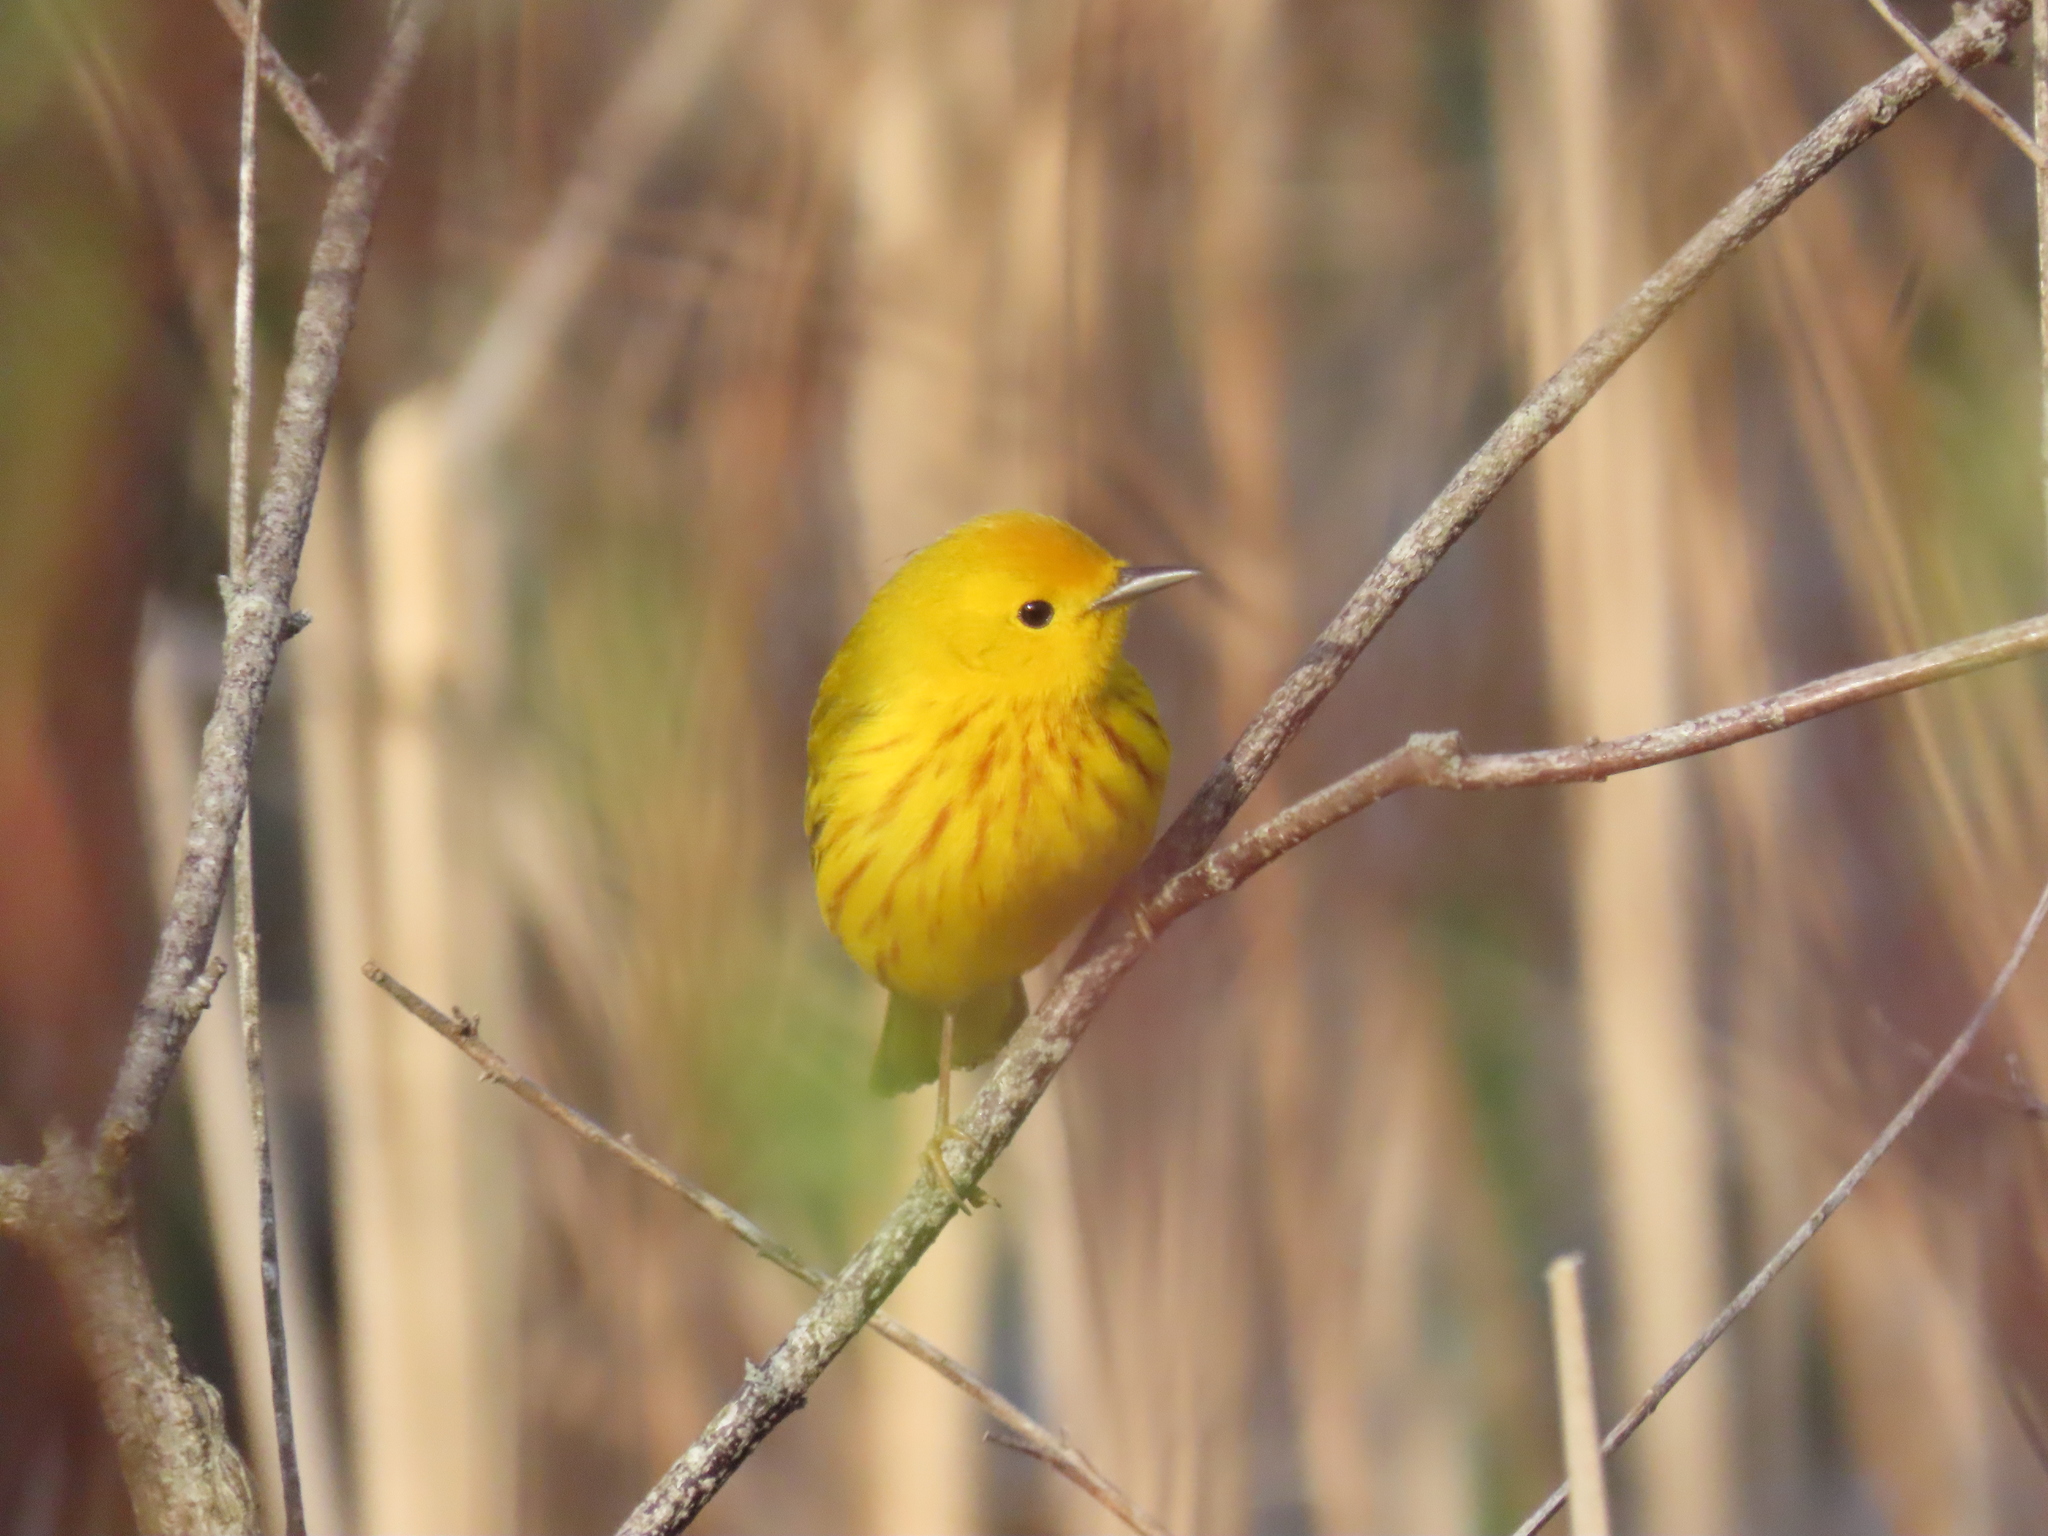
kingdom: Animalia
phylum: Chordata
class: Aves
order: Passeriformes
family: Parulidae
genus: Setophaga
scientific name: Setophaga petechia
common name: Yellow warbler
